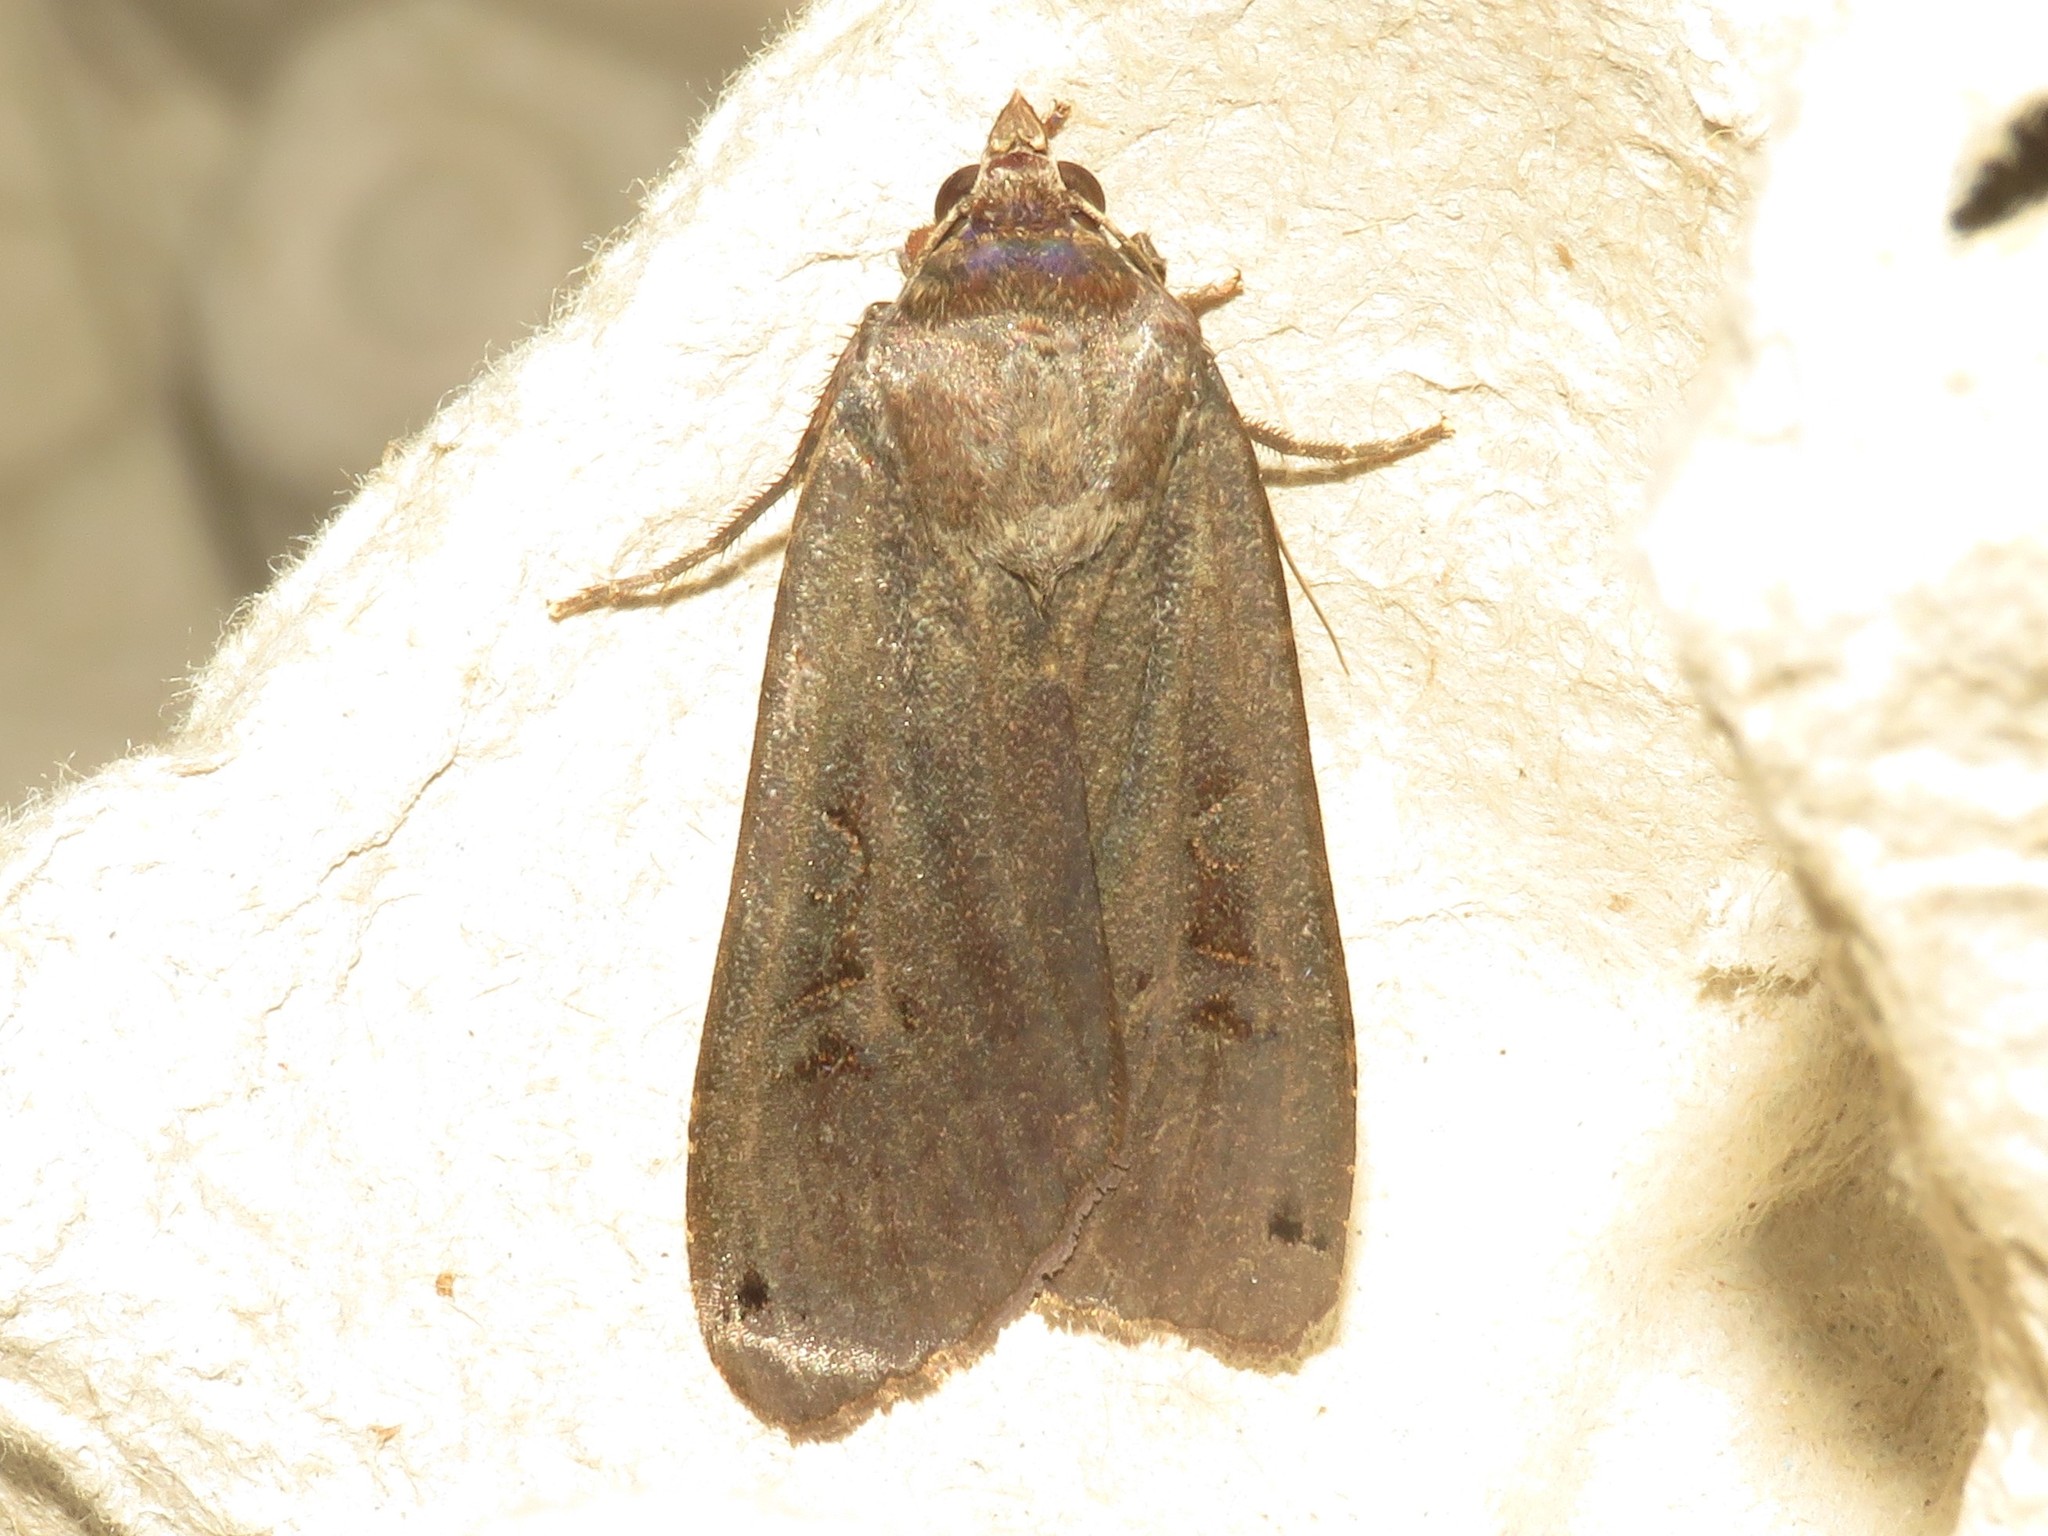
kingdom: Animalia
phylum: Arthropoda
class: Insecta
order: Lepidoptera
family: Noctuidae
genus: Noctua
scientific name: Noctua pronuba
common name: Large yellow underwing
